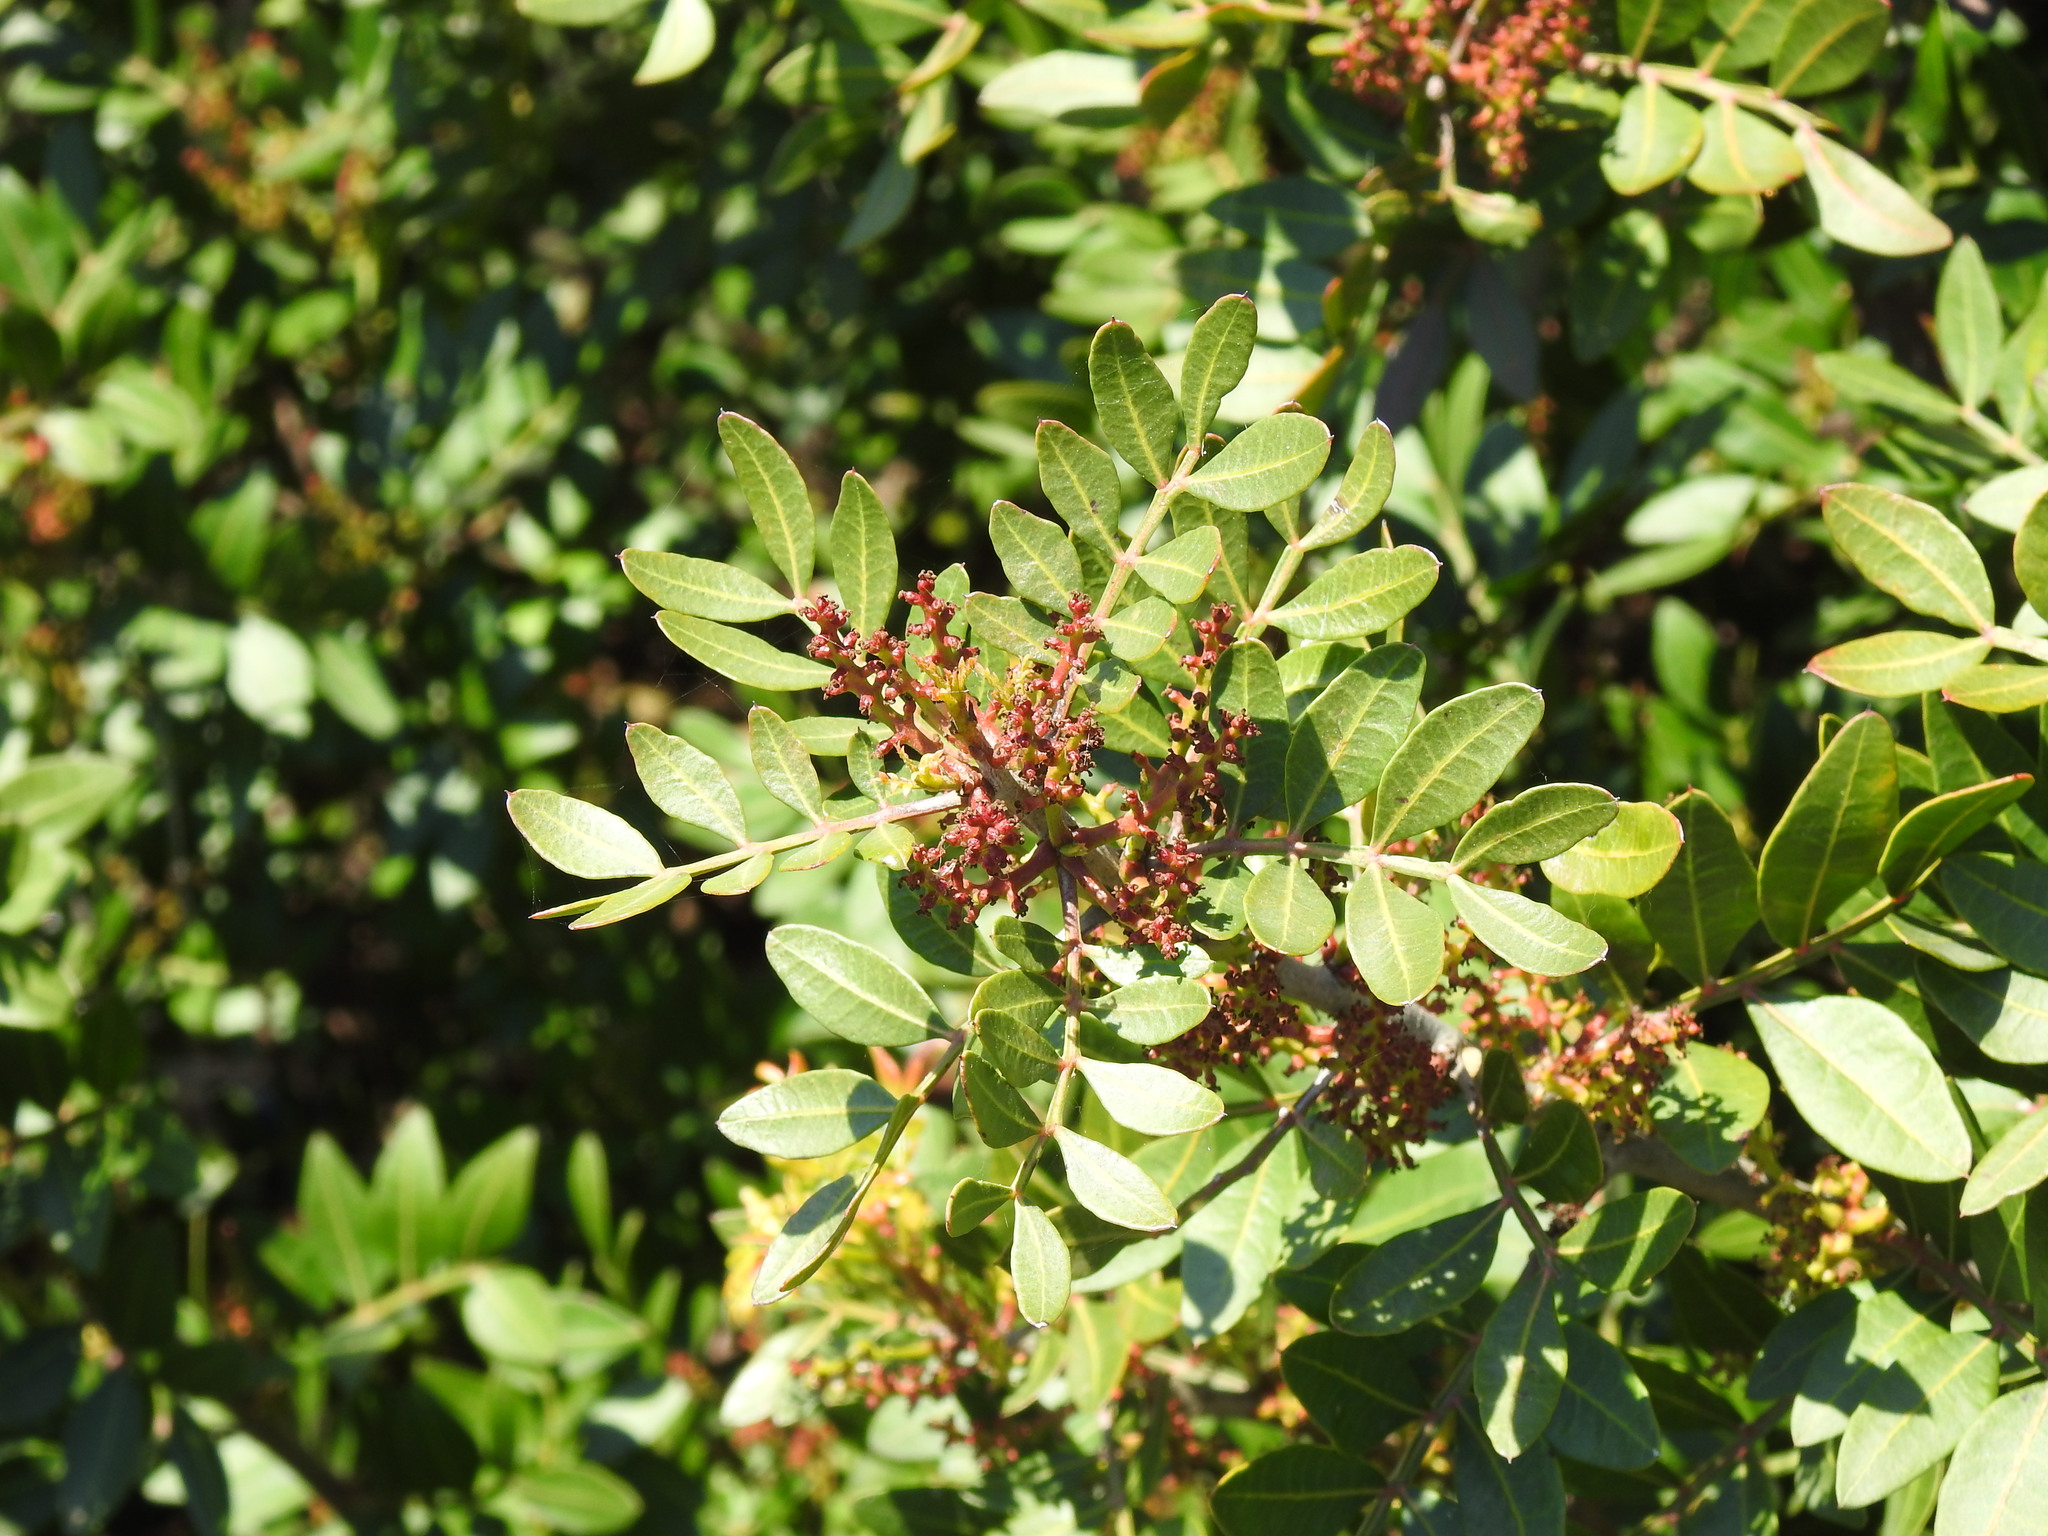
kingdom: Plantae
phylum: Tracheophyta
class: Magnoliopsida
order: Sapindales
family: Anacardiaceae
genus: Pistacia
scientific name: Pistacia lentiscus
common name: Lentisk
